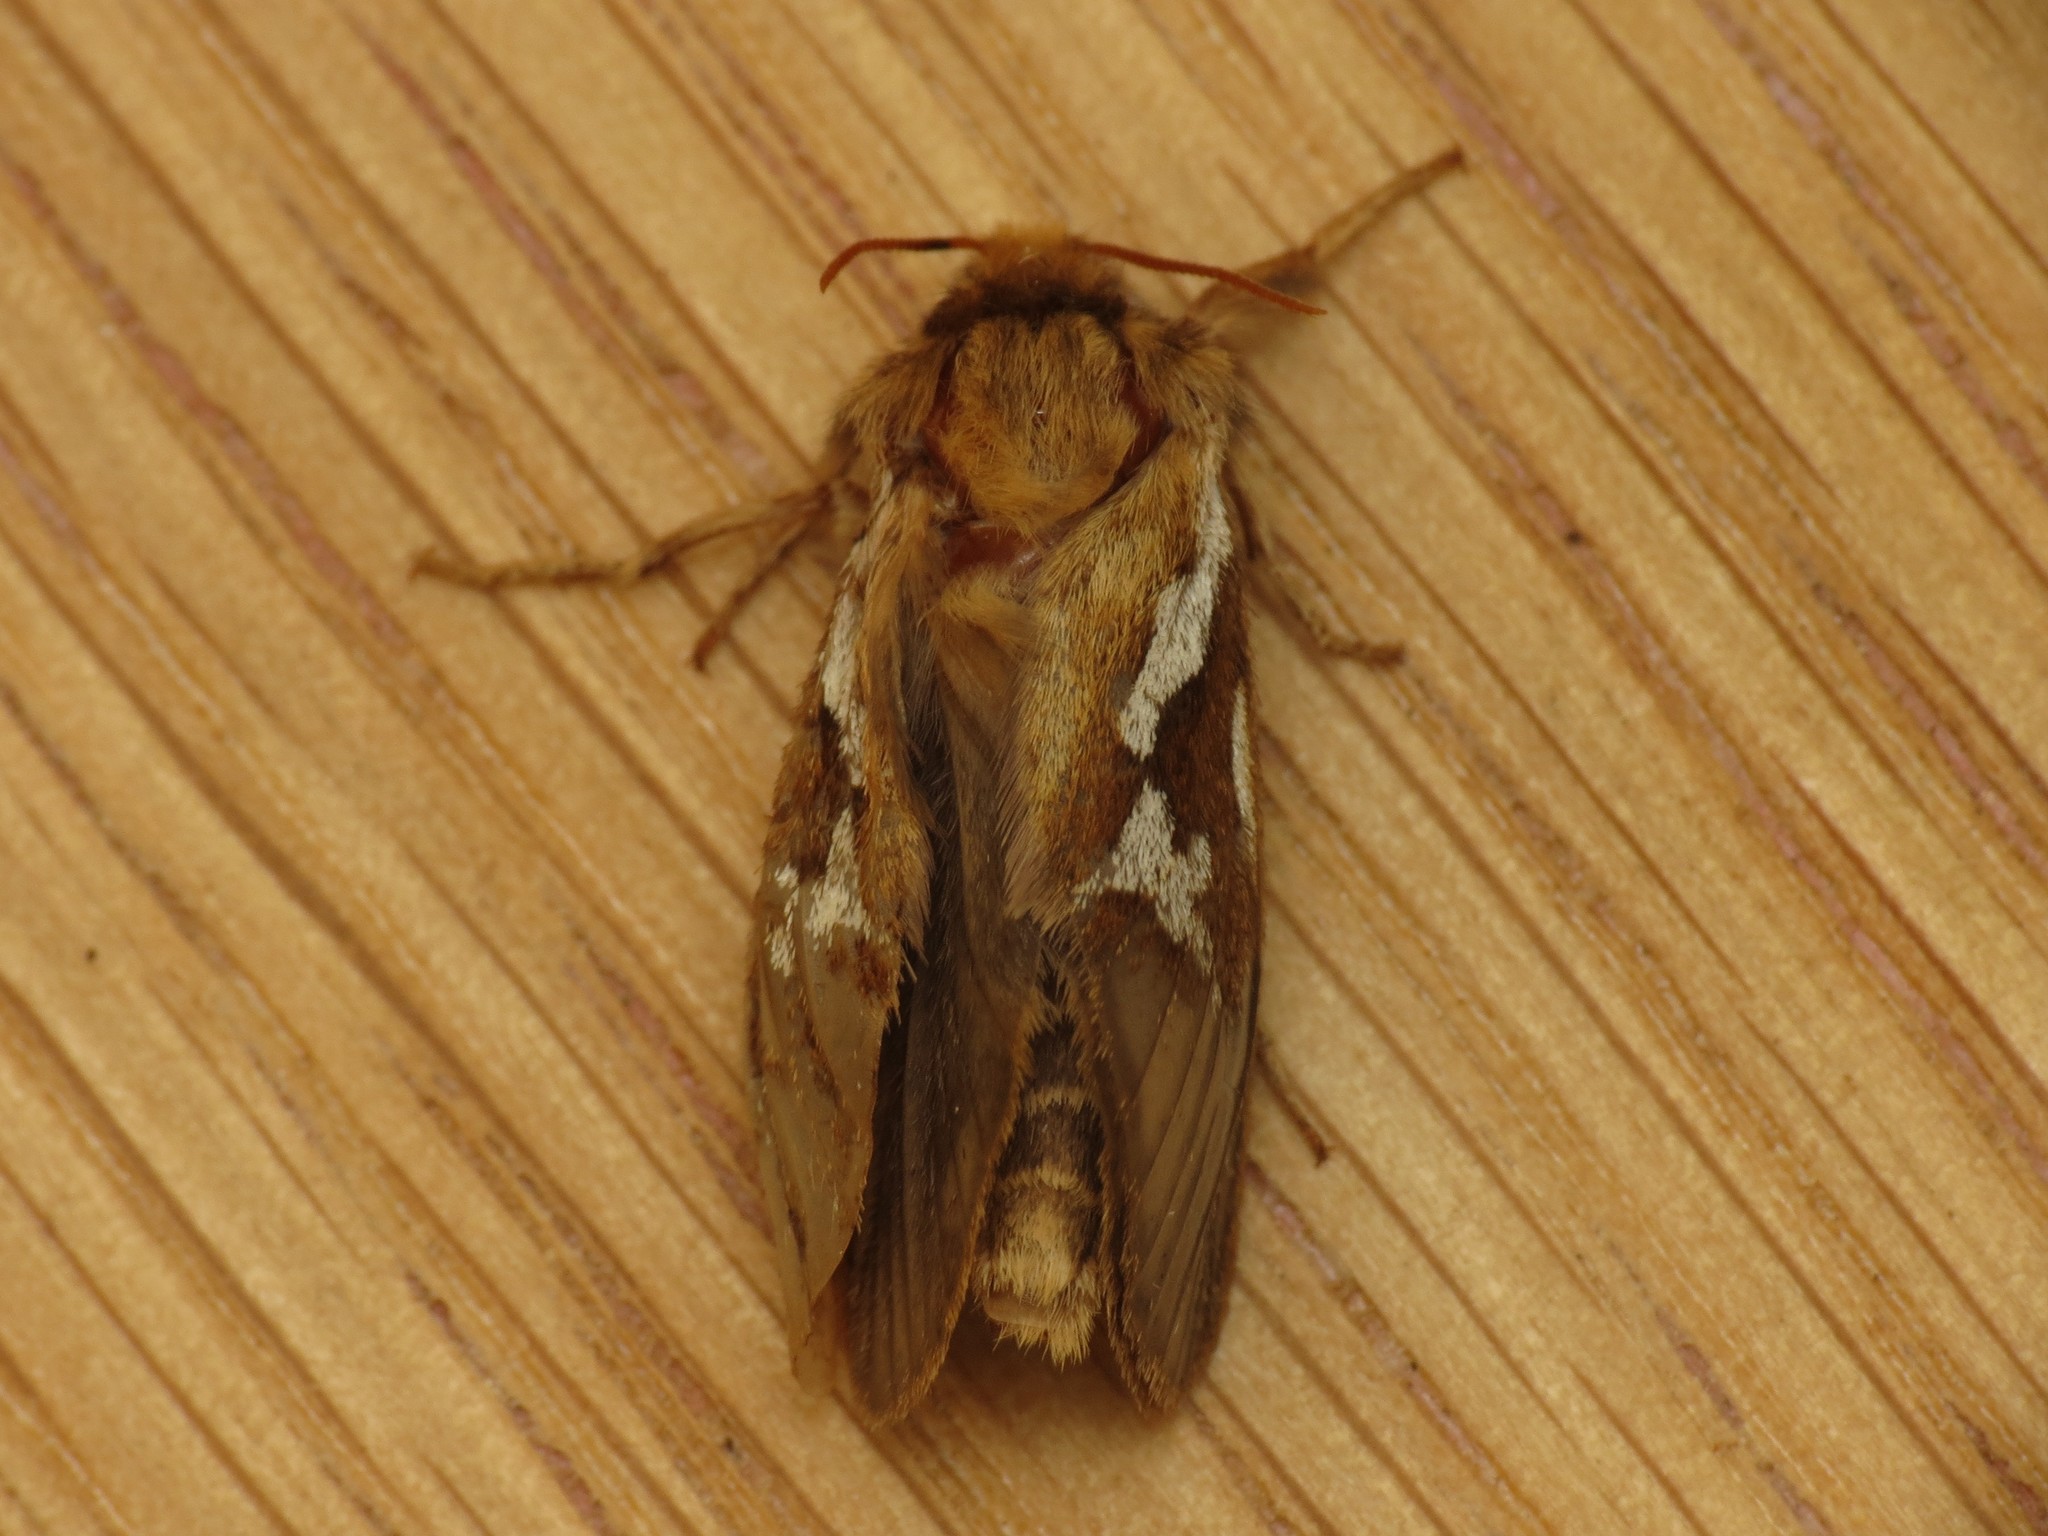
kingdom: Animalia
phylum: Arthropoda
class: Insecta
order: Lepidoptera
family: Hepialidae
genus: Korscheltellus
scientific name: Korscheltellus lupulina
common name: Common swift
